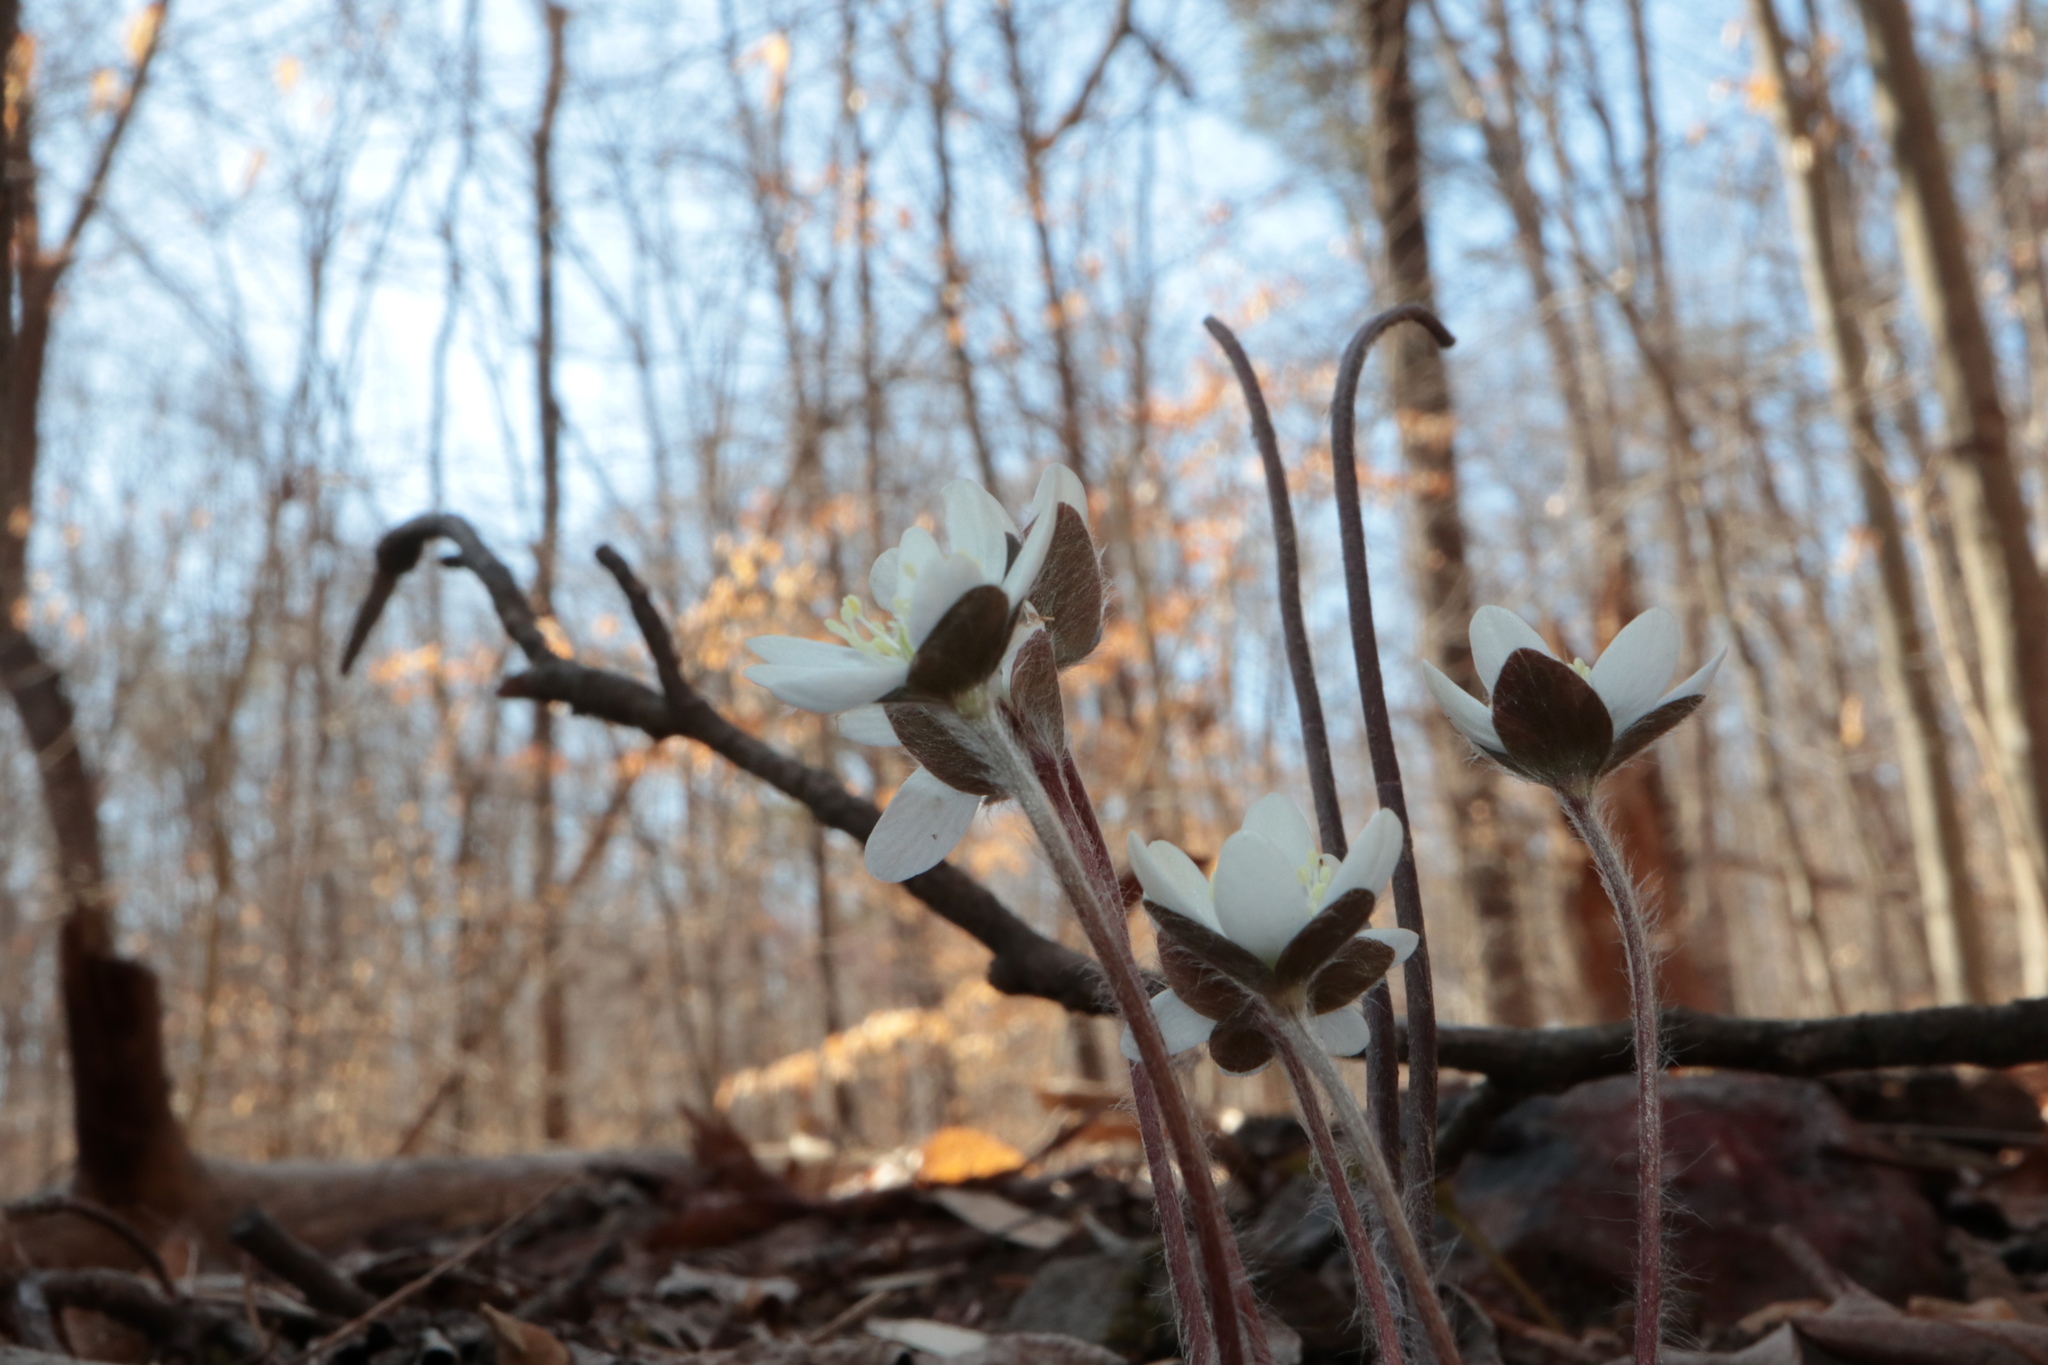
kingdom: Plantae
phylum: Tracheophyta
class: Magnoliopsida
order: Ranunculales
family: Ranunculaceae
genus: Hepatica
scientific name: Hepatica americana
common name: American hepatica
